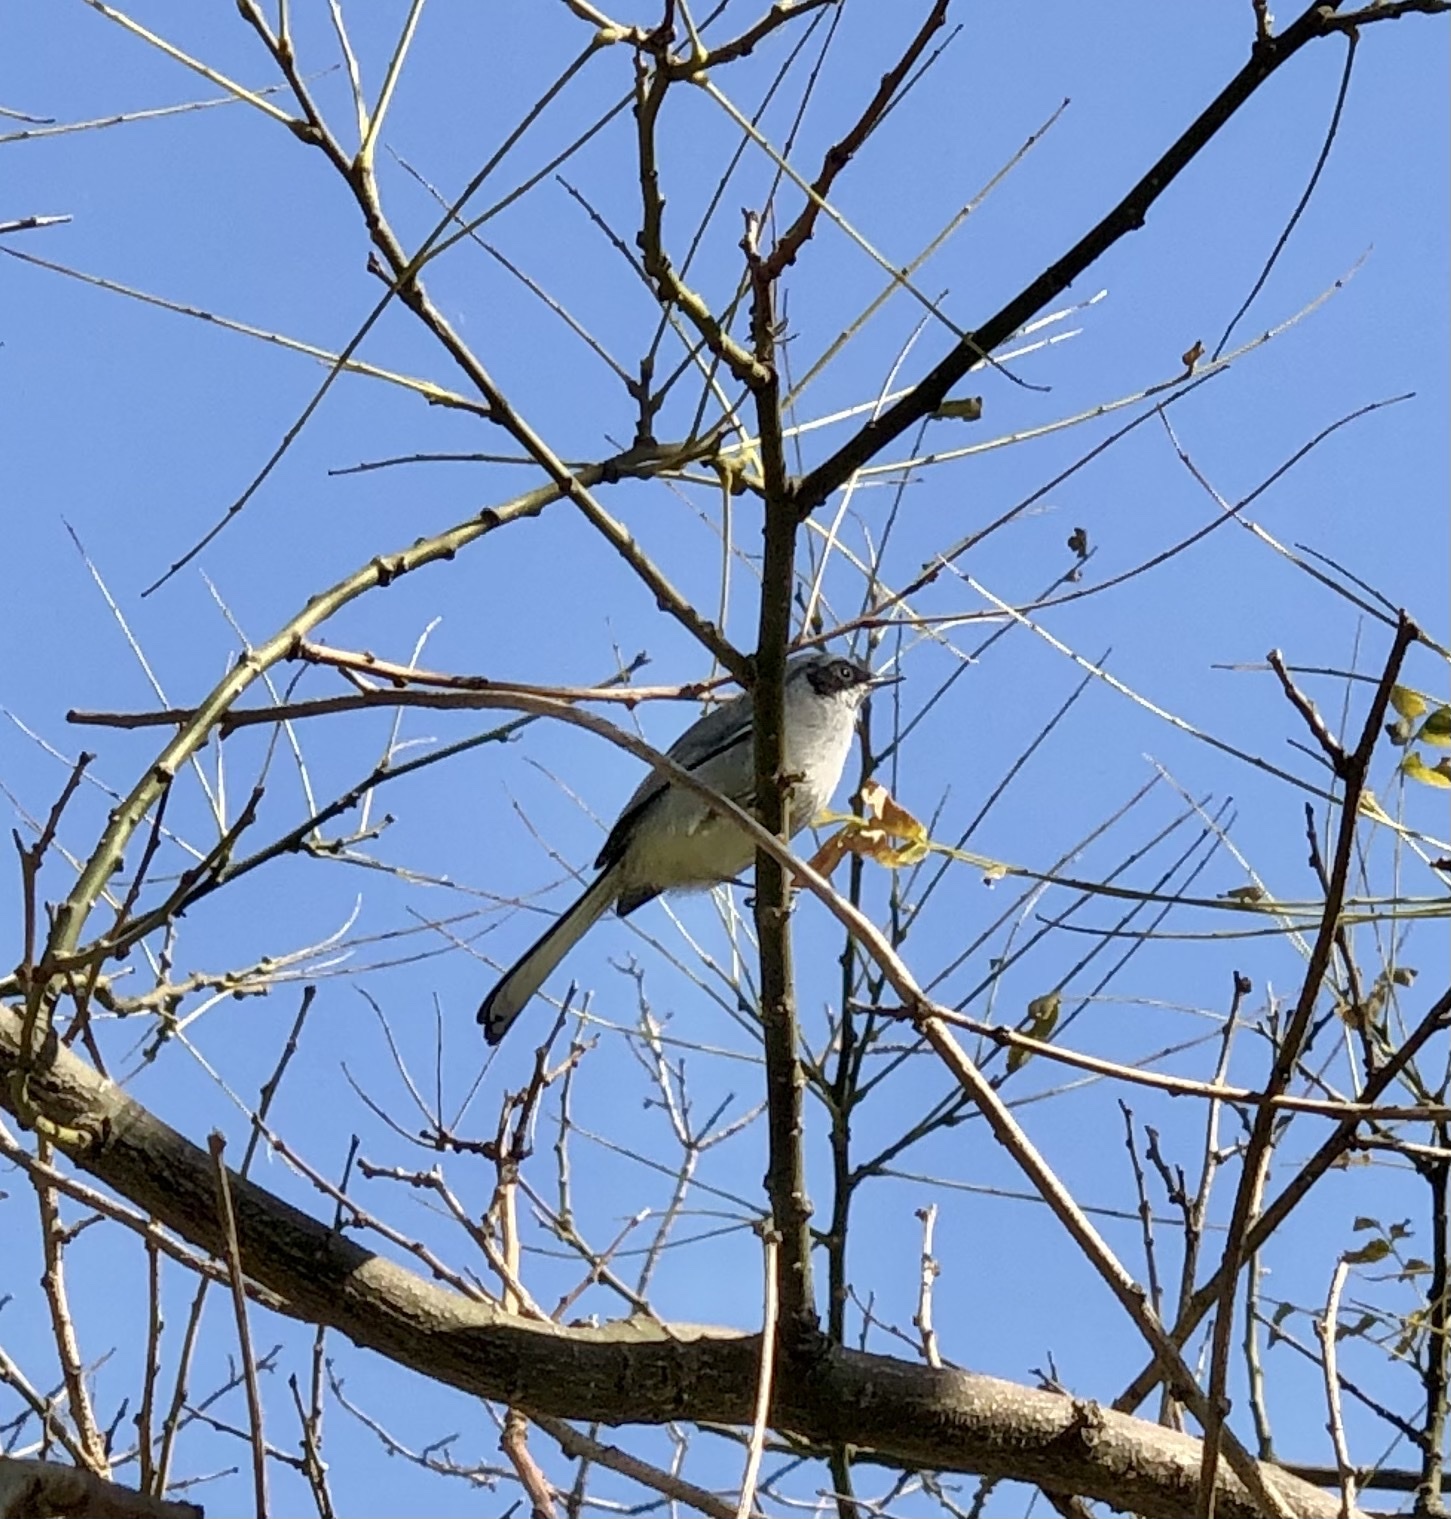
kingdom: Animalia
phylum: Chordata
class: Aves
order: Passeriformes
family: Polioptilidae
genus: Polioptila
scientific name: Polioptila dumicola
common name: Masked gnatcatcher
